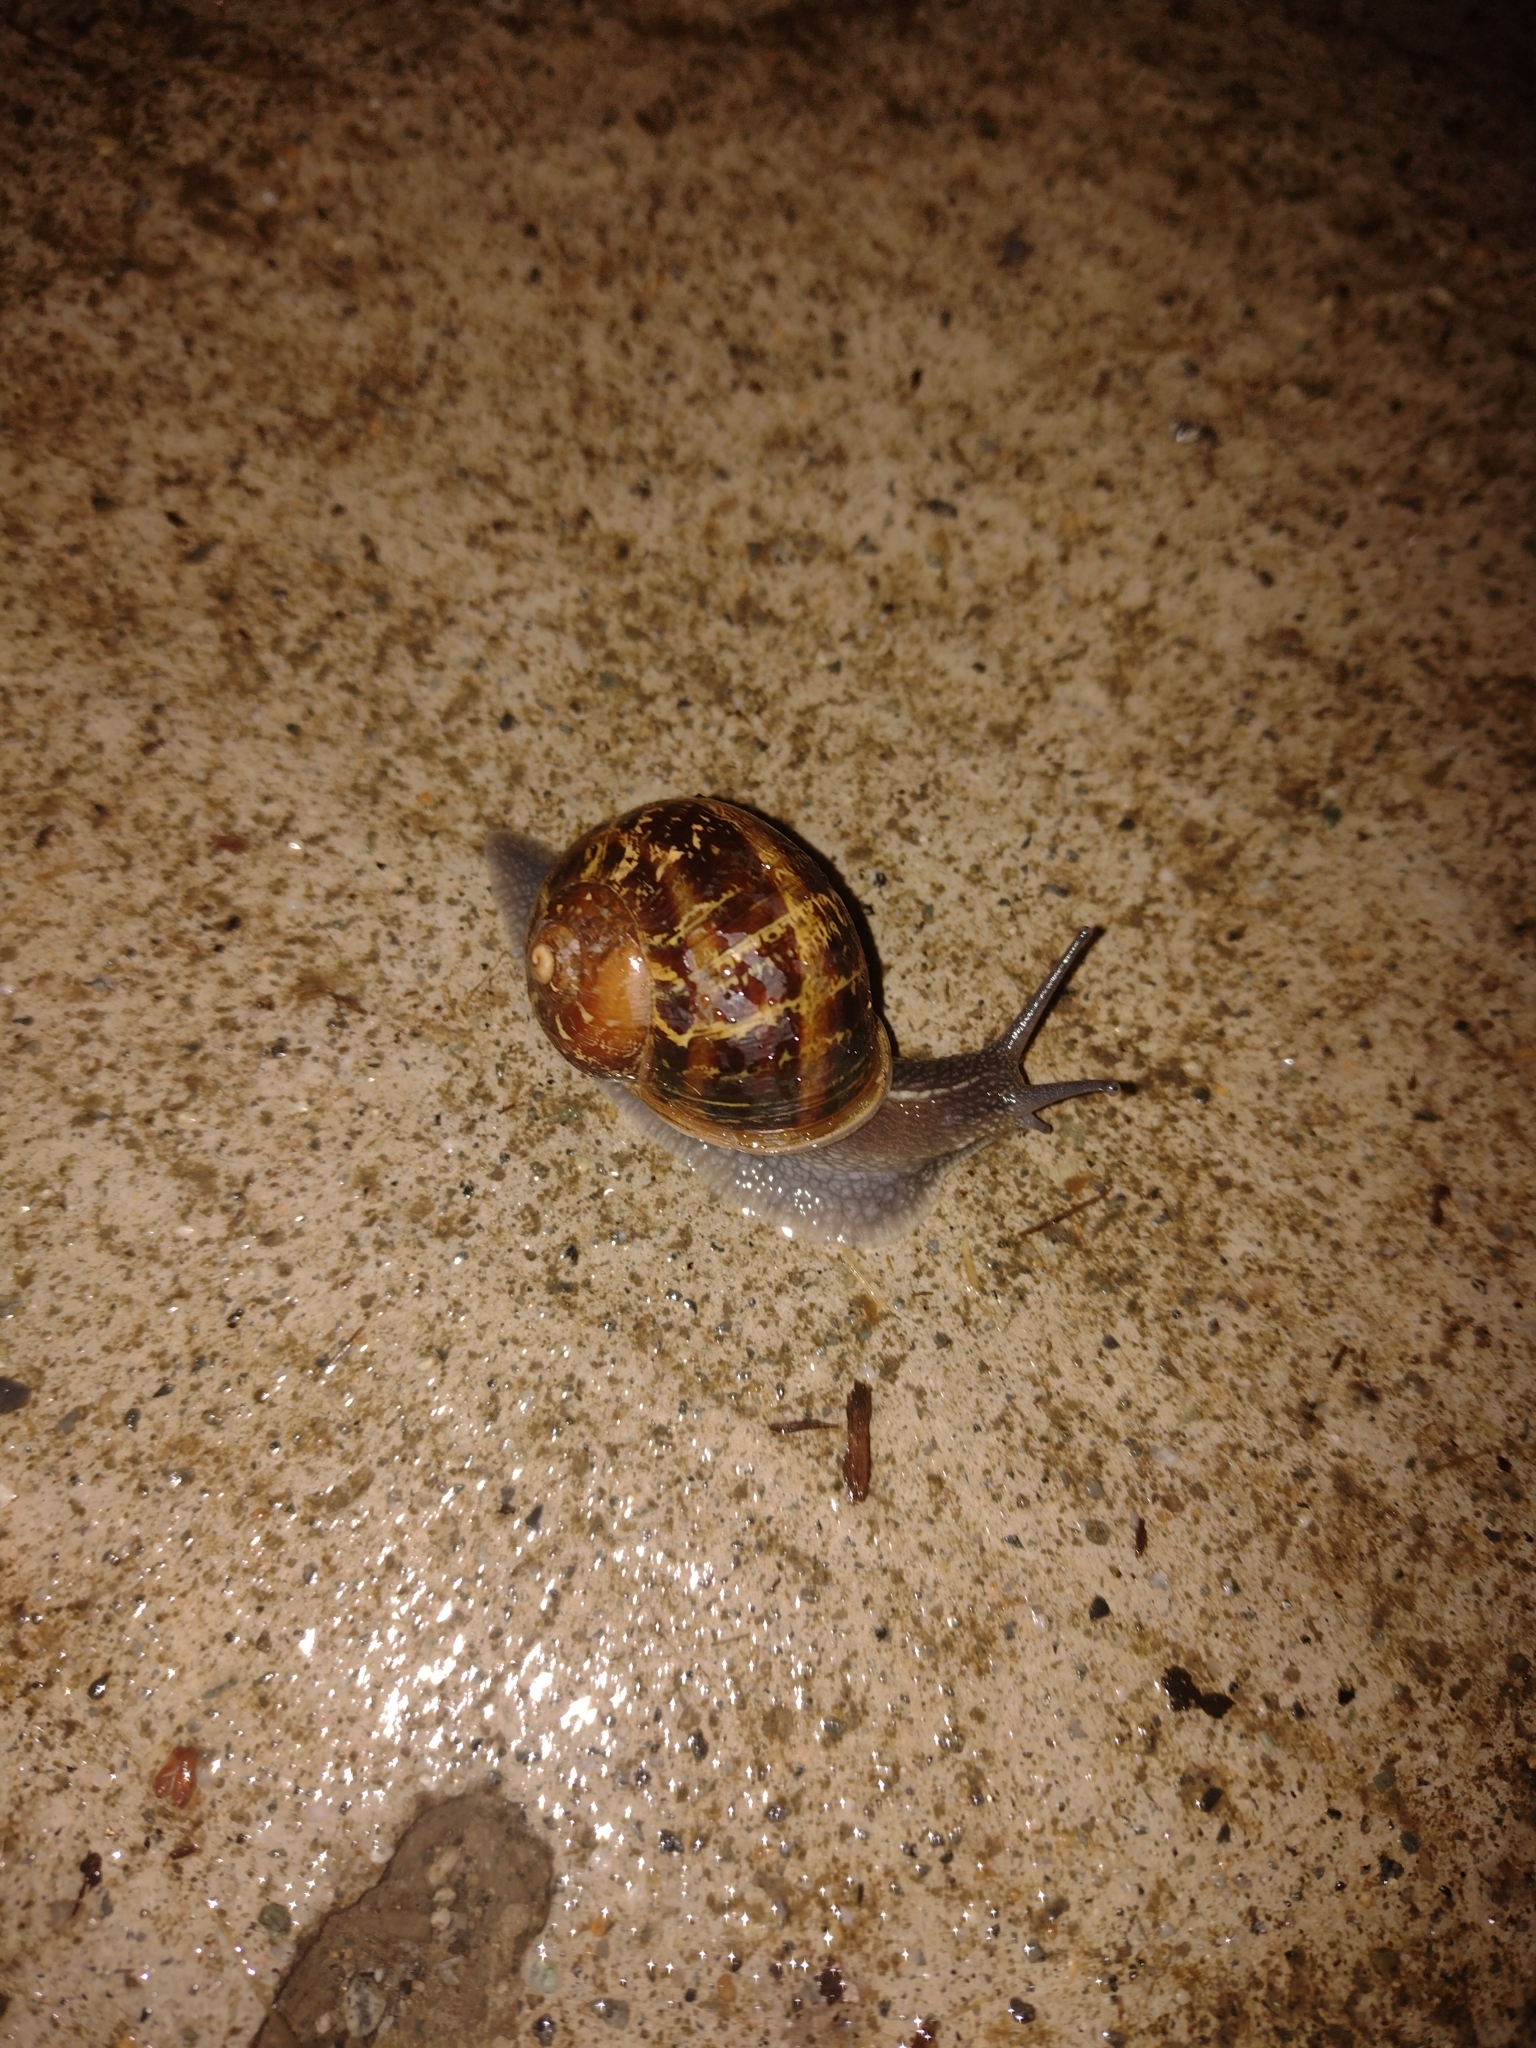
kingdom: Animalia
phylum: Mollusca
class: Gastropoda
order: Stylommatophora
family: Helicidae
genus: Cornu
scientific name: Cornu aspersum
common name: Brown garden snail
